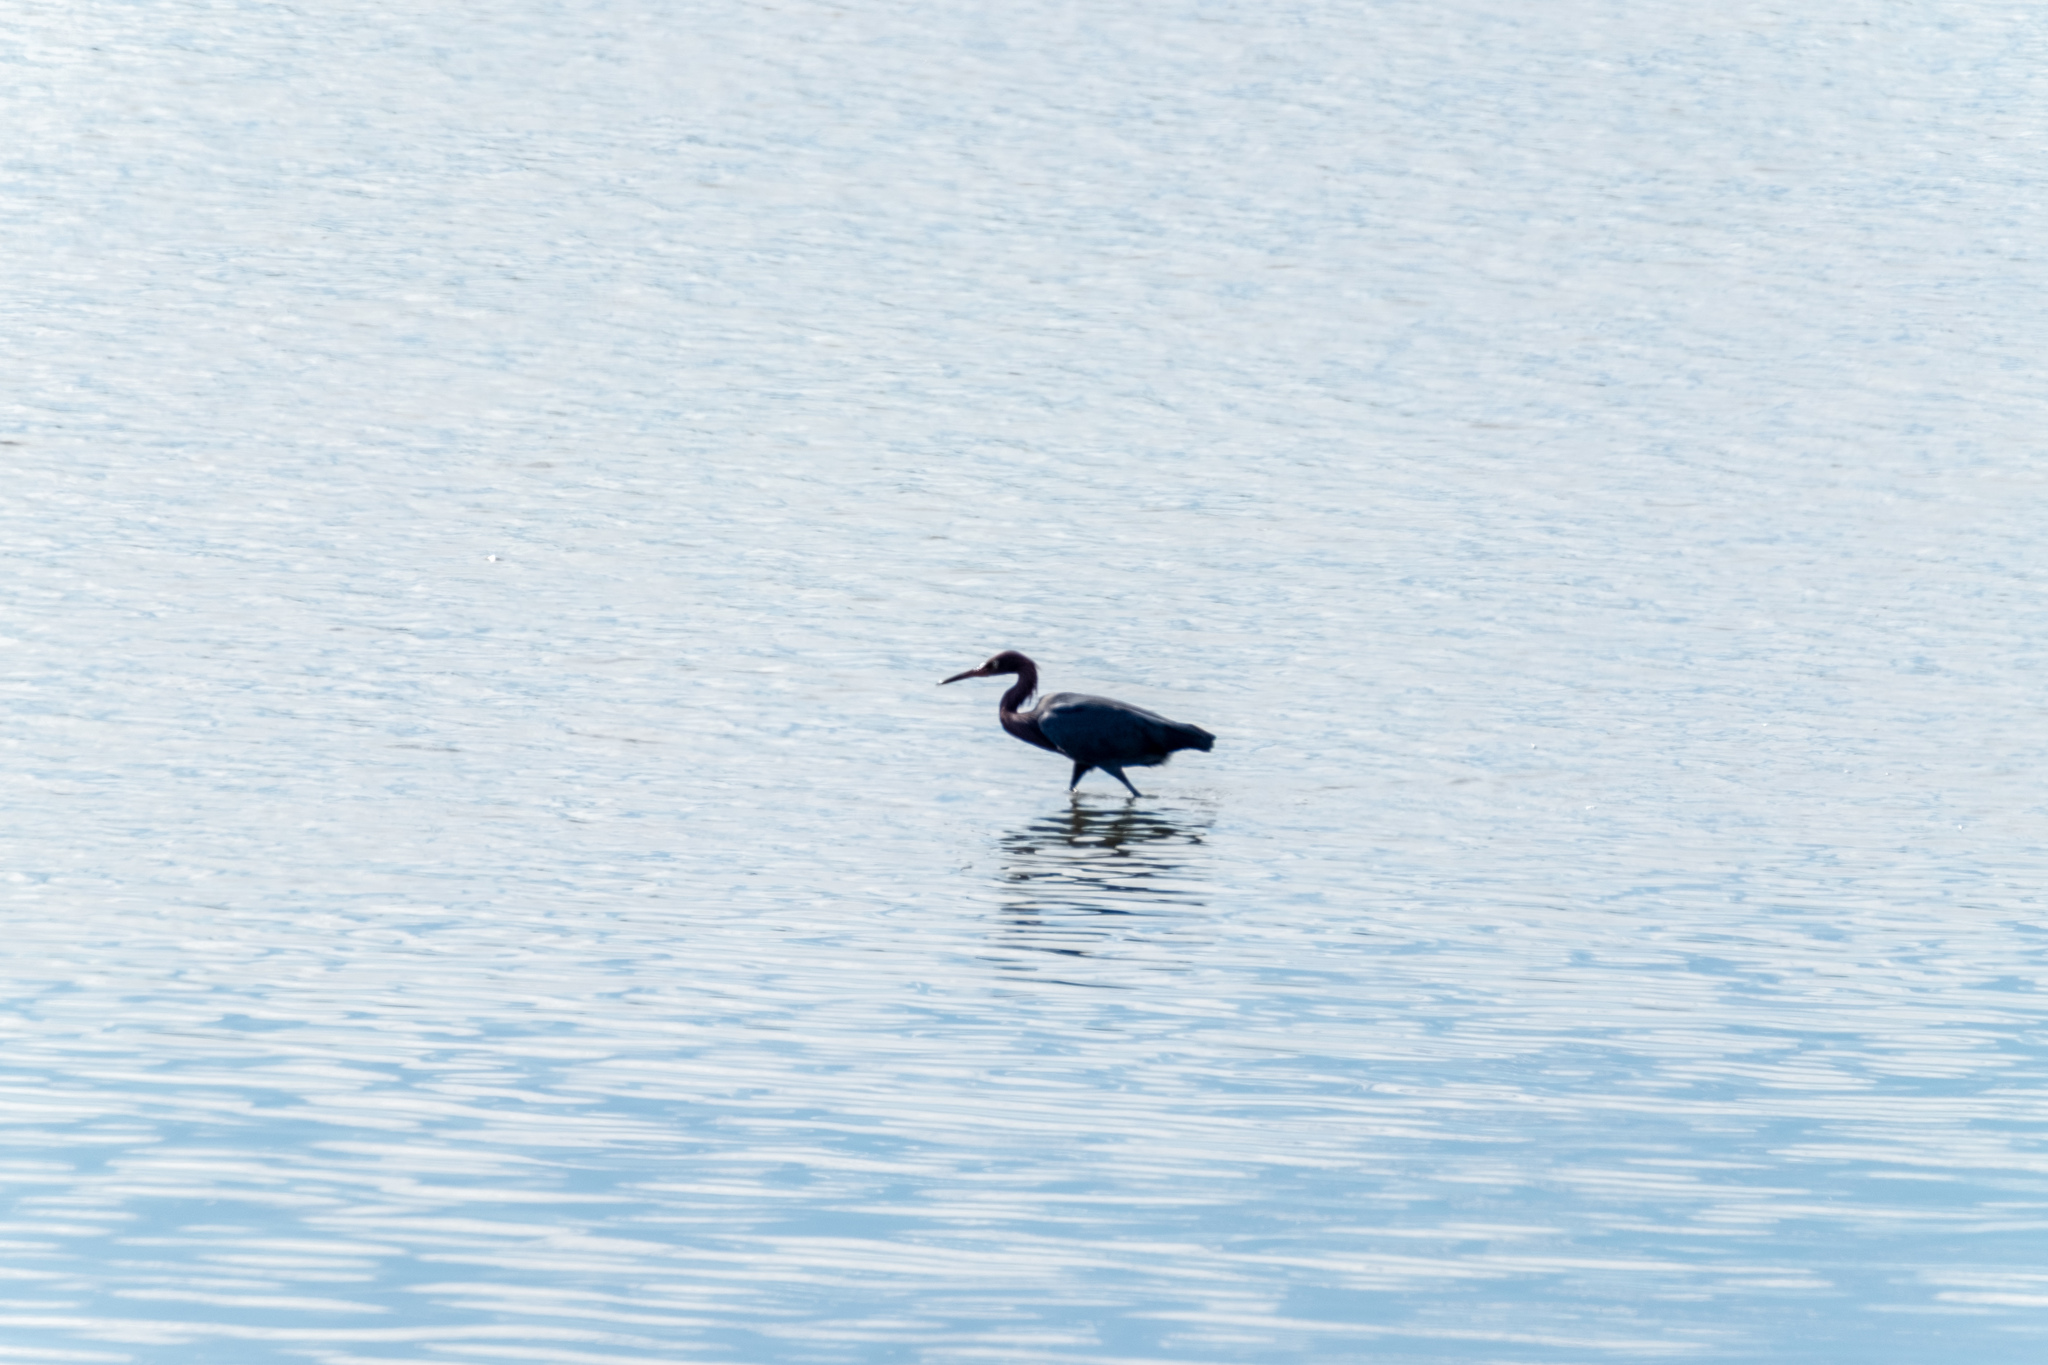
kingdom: Animalia
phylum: Chordata
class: Aves
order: Pelecaniformes
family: Ardeidae
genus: Egretta
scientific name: Egretta rufescens
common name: Reddish egret
